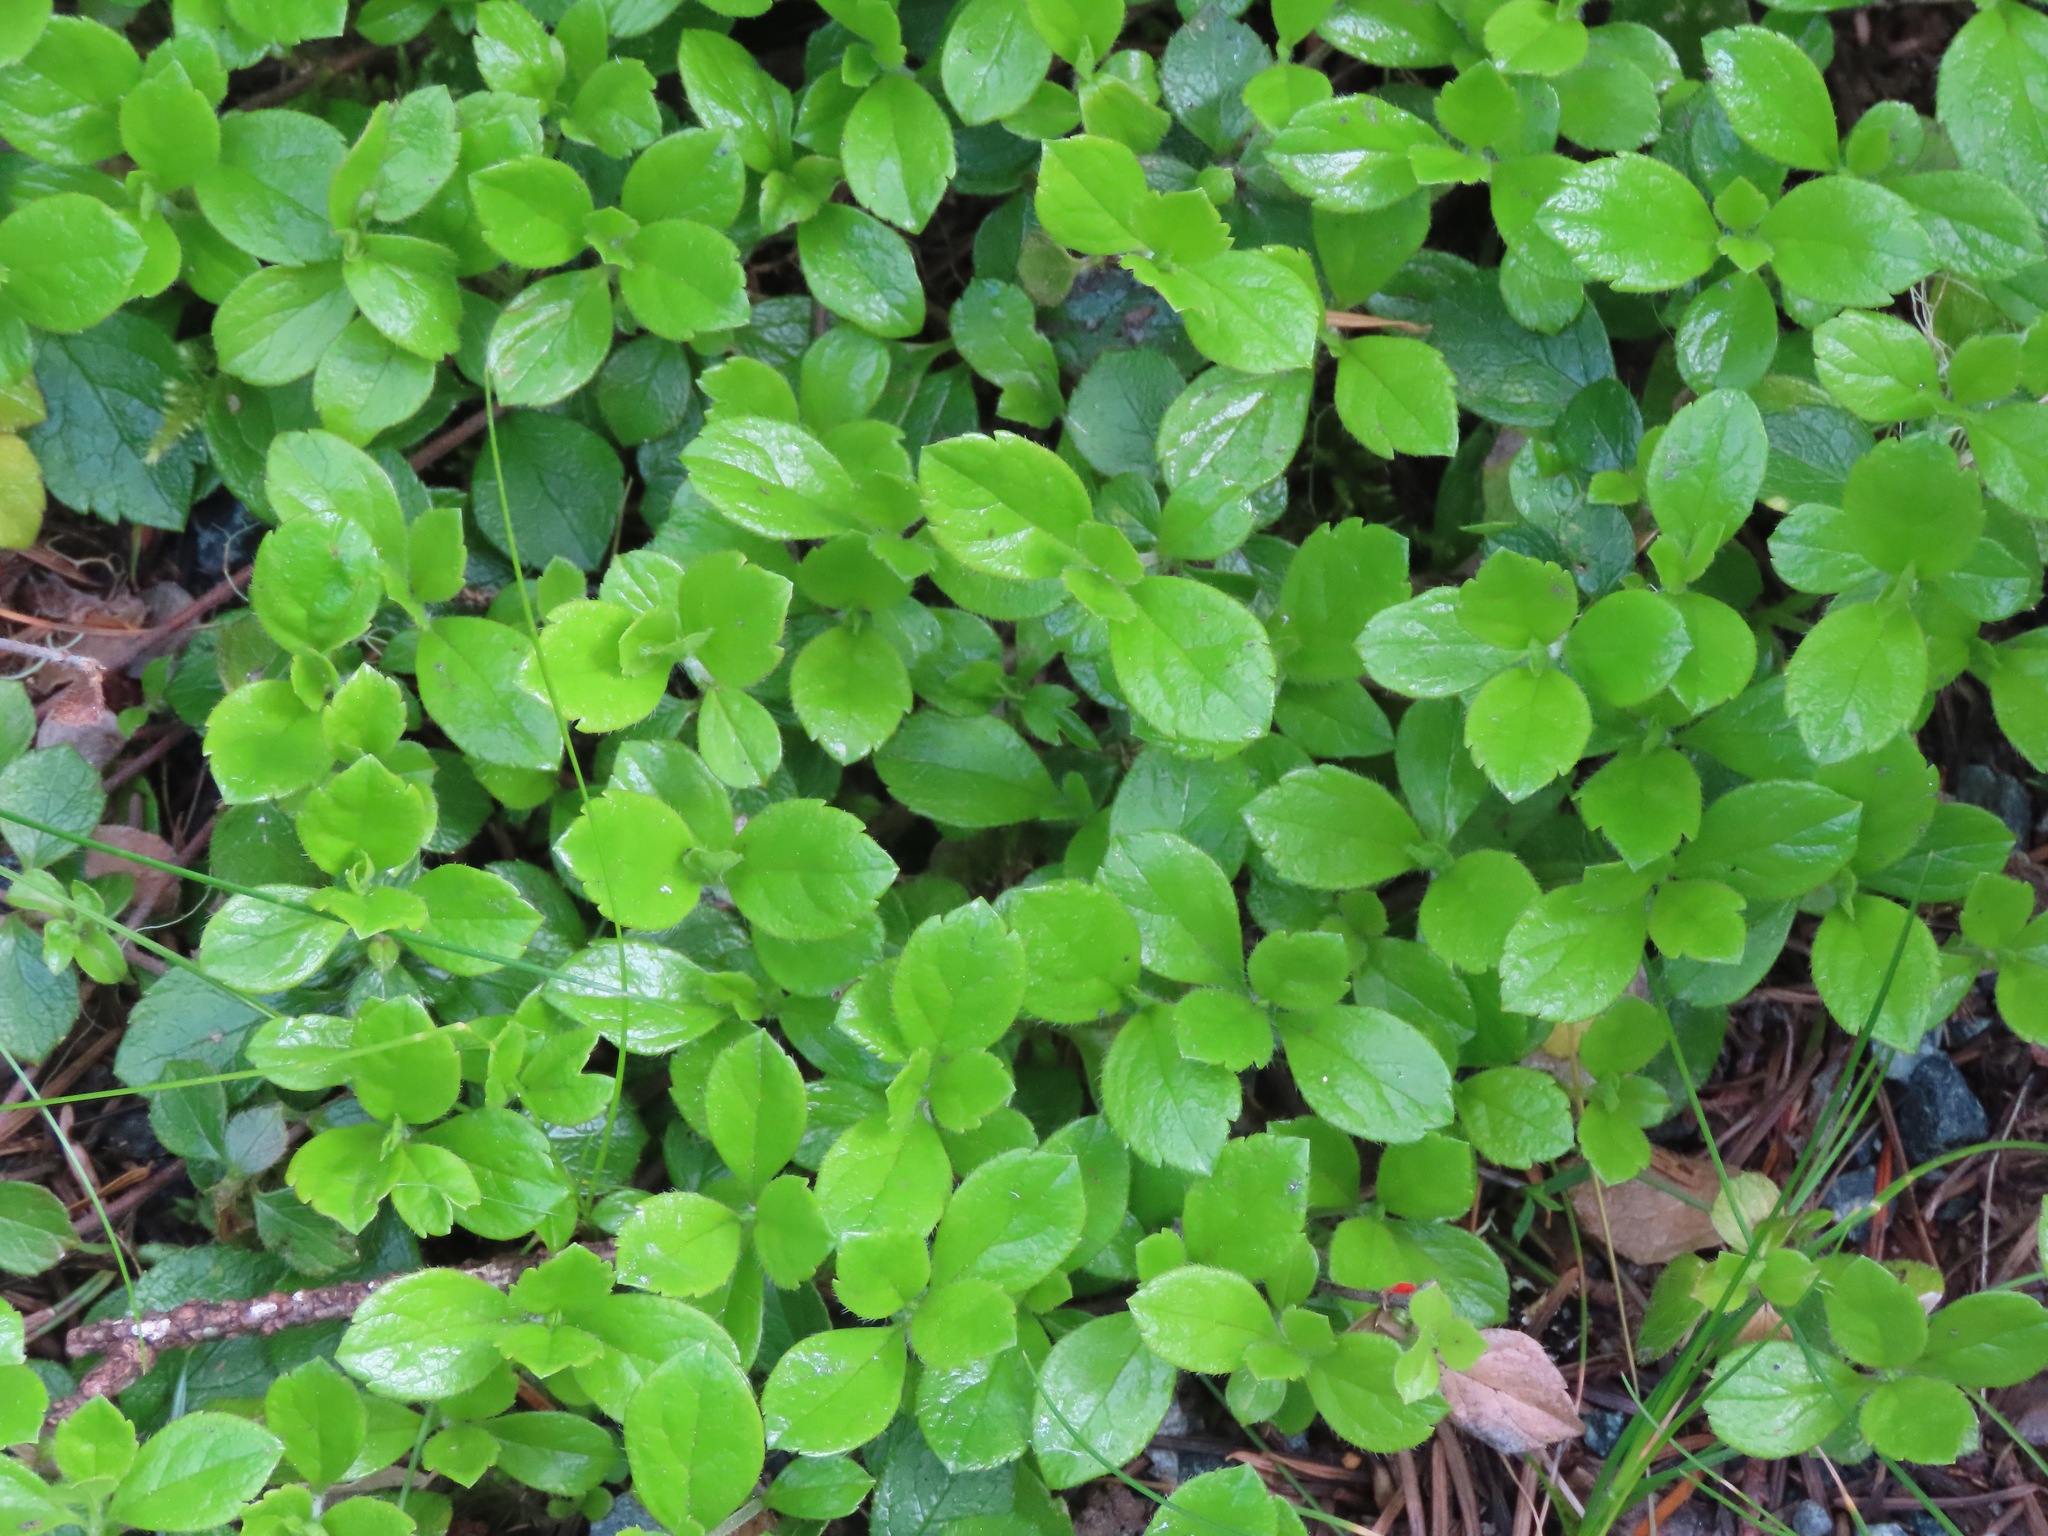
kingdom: Plantae
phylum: Tracheophyta
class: Magnoliopsida
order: Dipsacales
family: Caprifoliaceae
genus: Linnaea
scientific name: Linnaea borealis
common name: Twinflower
